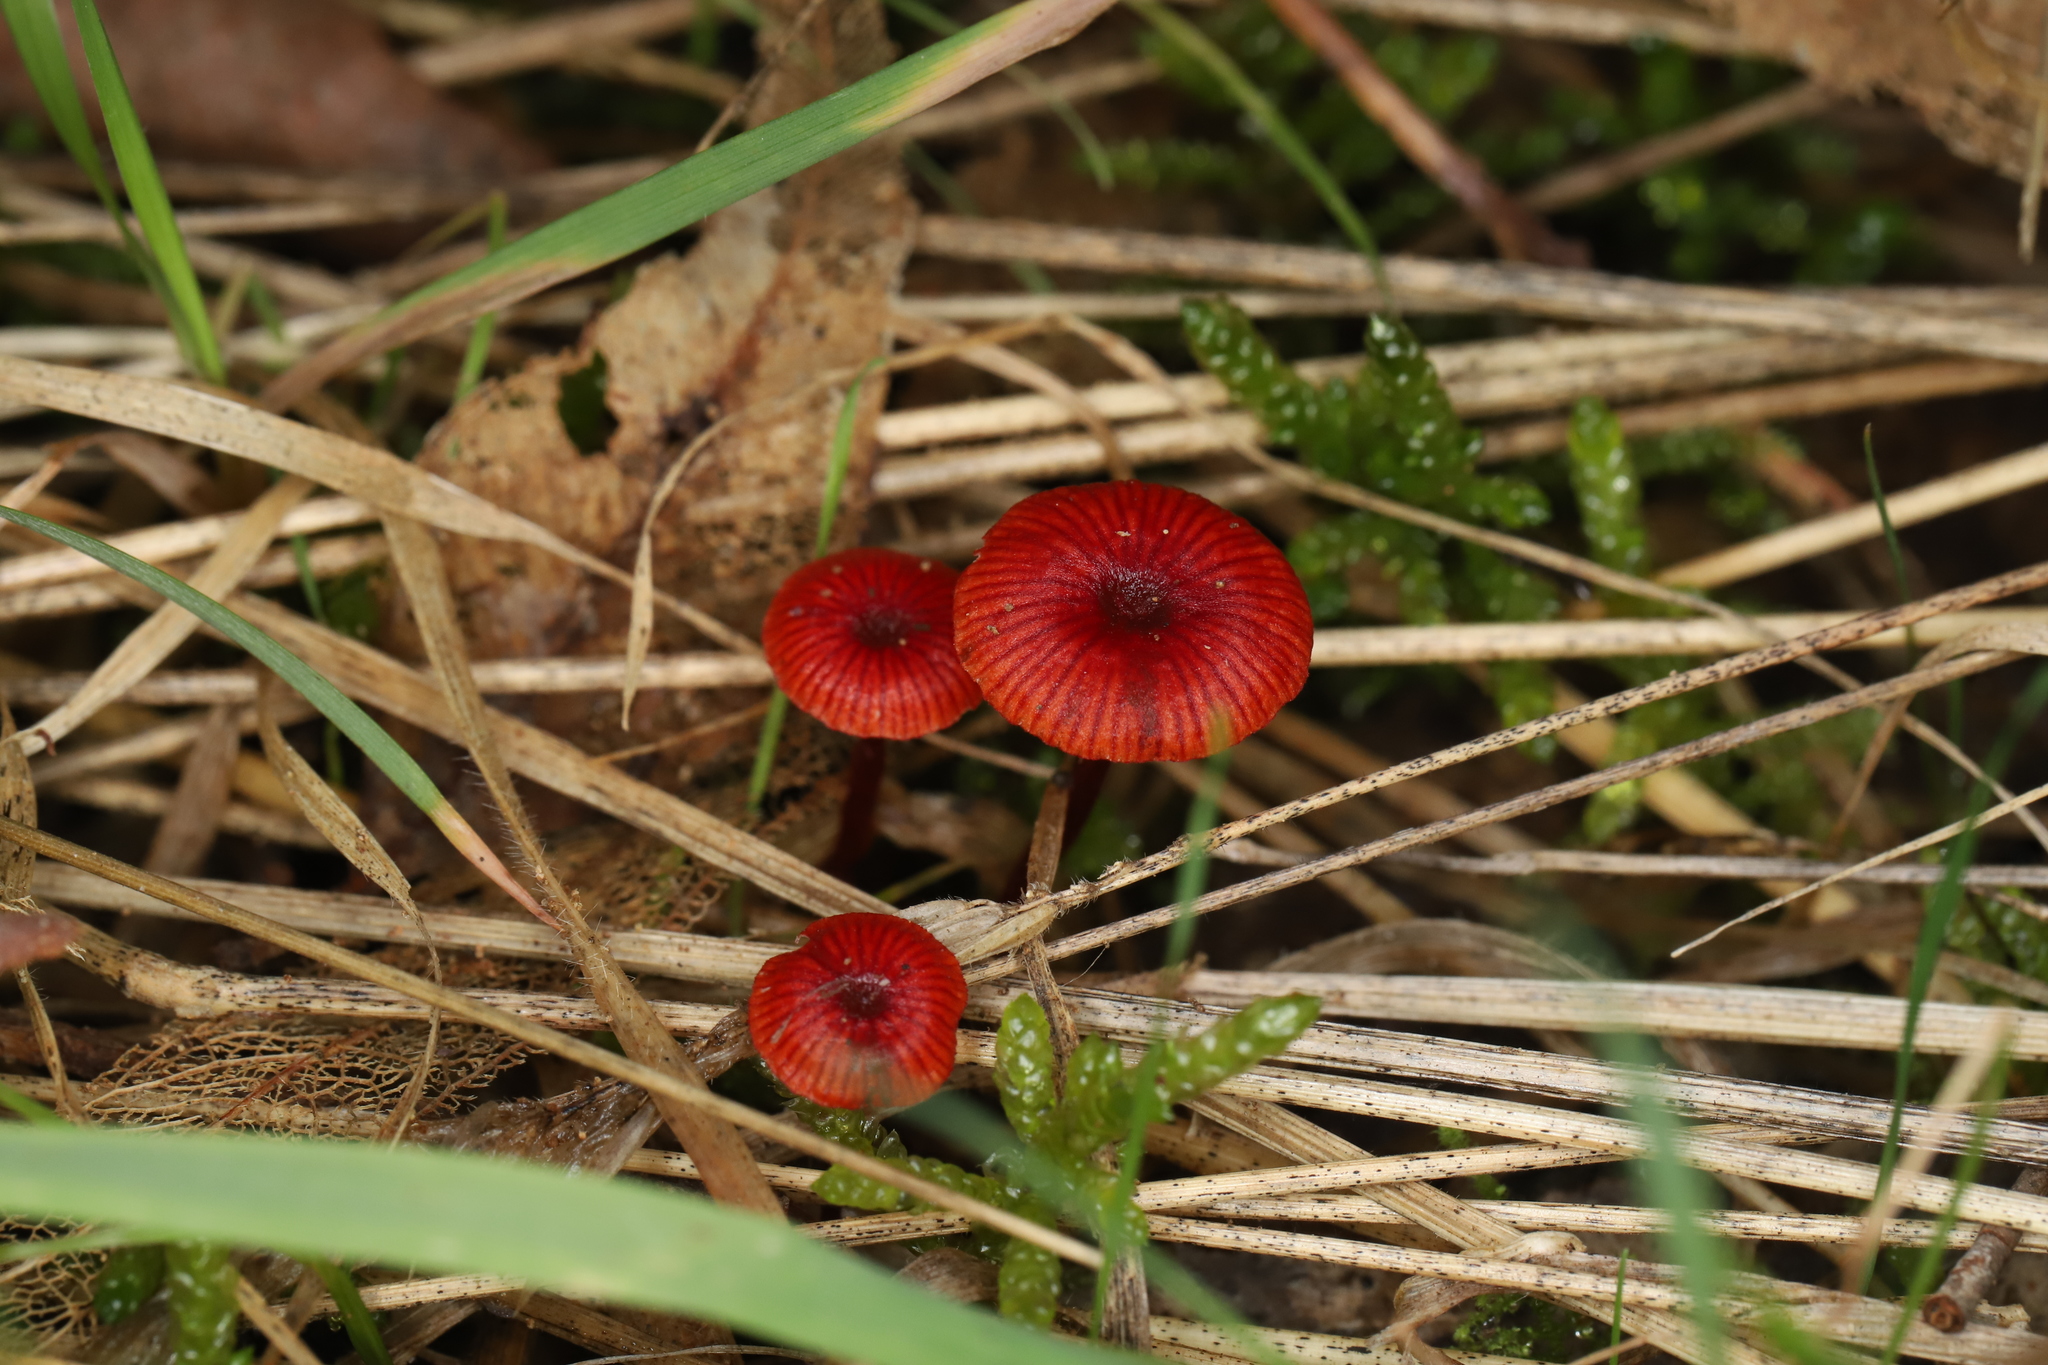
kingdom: Fungi
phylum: Basidiomycota
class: Agaricomycetes
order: Agaricales
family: Mycenaceae
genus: Cruentomycena
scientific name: Cruentomycena viscidocruenta
